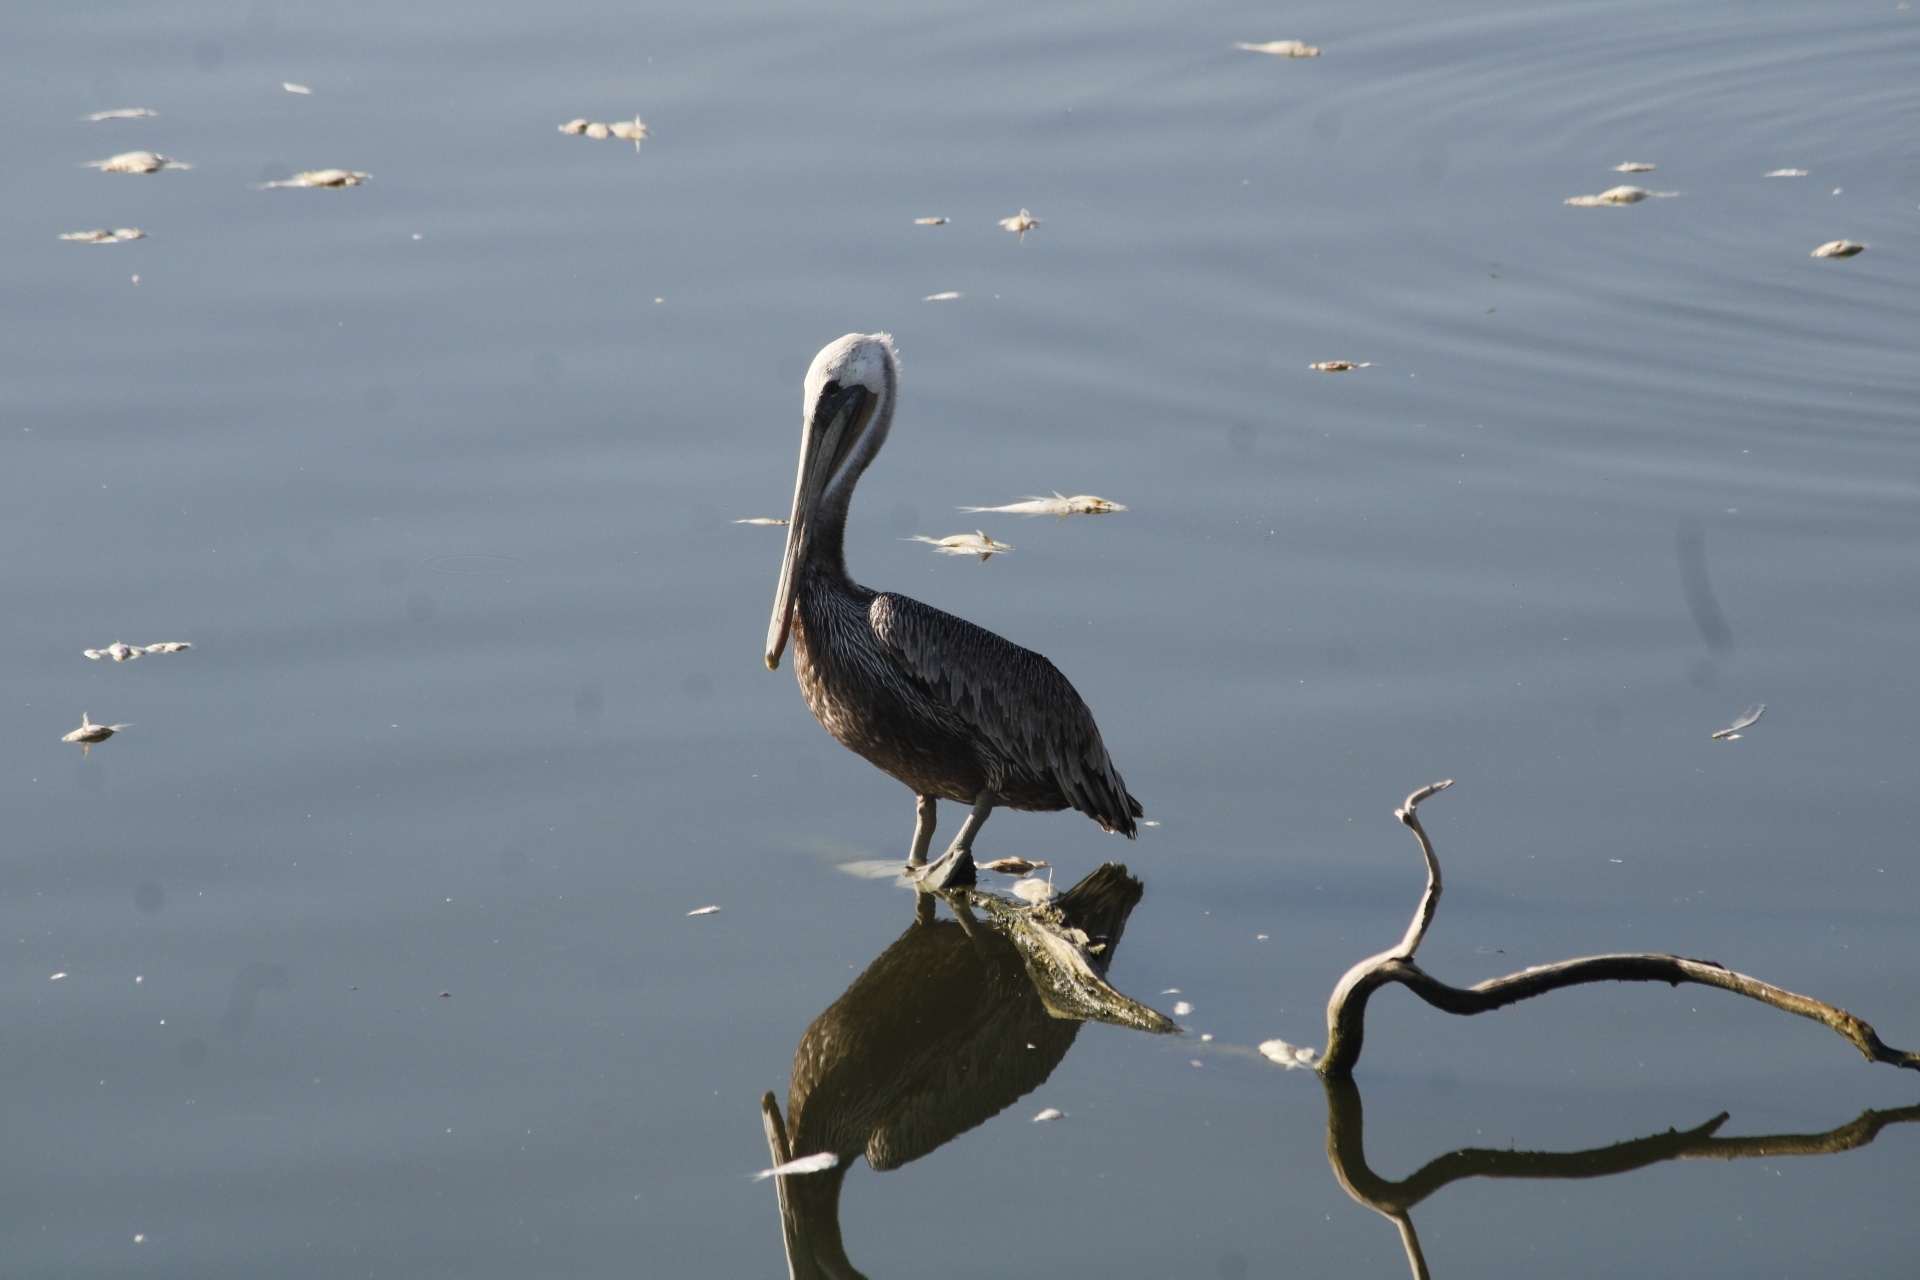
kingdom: Animalia
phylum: Chordata
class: Aves
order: Pelecaniformes
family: Pelecanidae
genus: Pelecanus
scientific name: Pelecanus occidentalis
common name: Brown pelican
